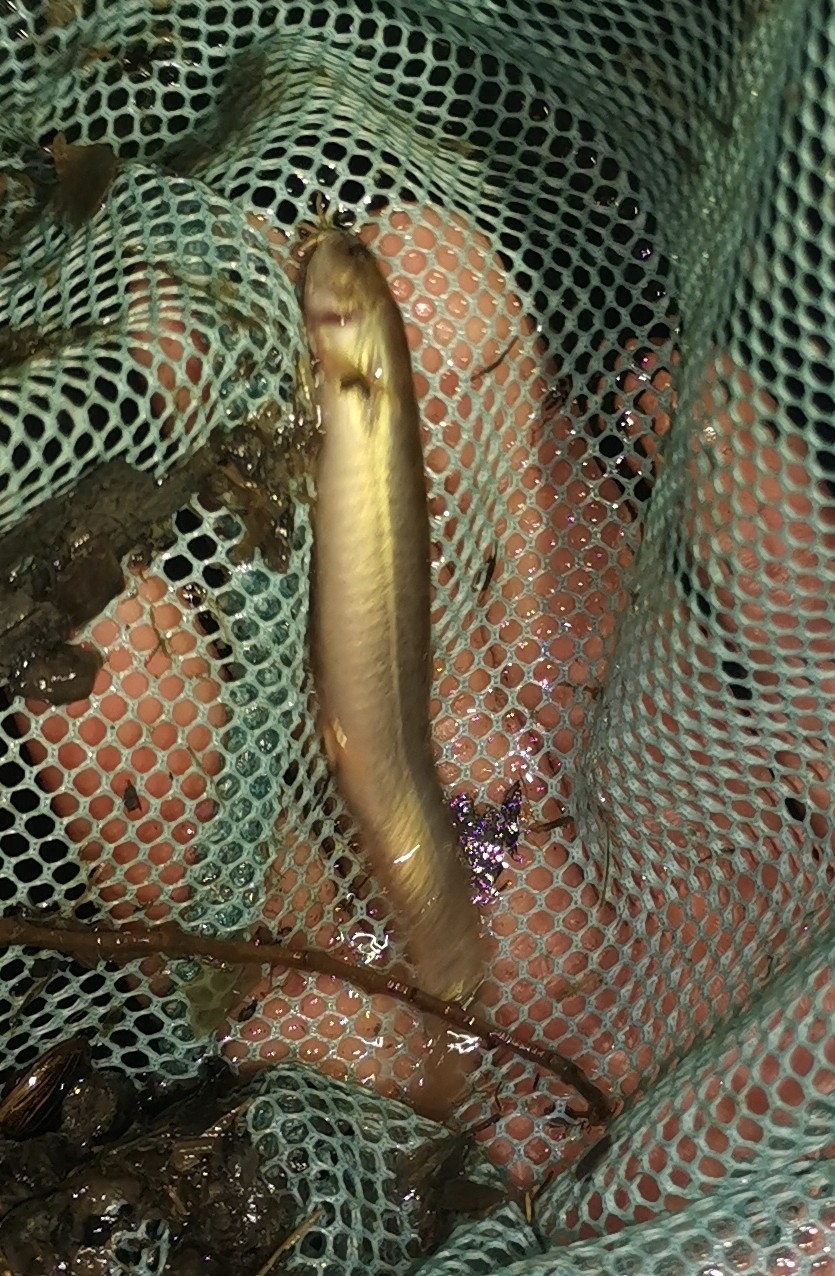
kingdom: Animalia
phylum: Chordata
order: Cypriniformes
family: Cobitidae
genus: Misgurnus
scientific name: Misgurnus anguillicaudatus
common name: Oriental weatherfish
